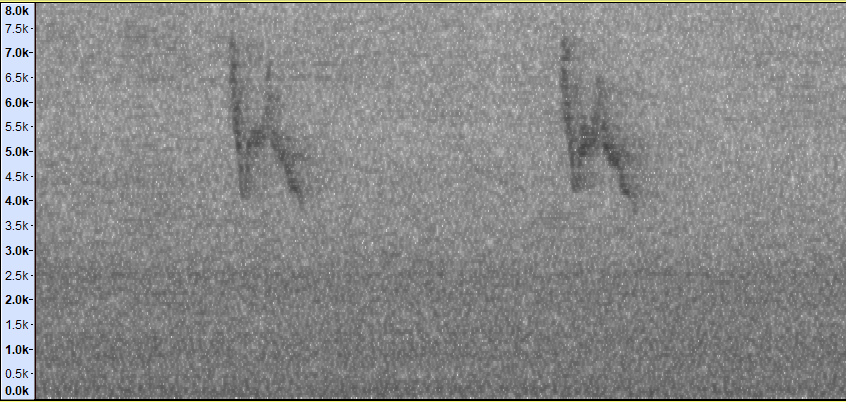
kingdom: Animalia
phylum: Chordata
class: Aves
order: Passeriformes
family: Zosteropidae
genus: Zosterops
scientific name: Zosterops simplex
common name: Swinhoe's white-eye
